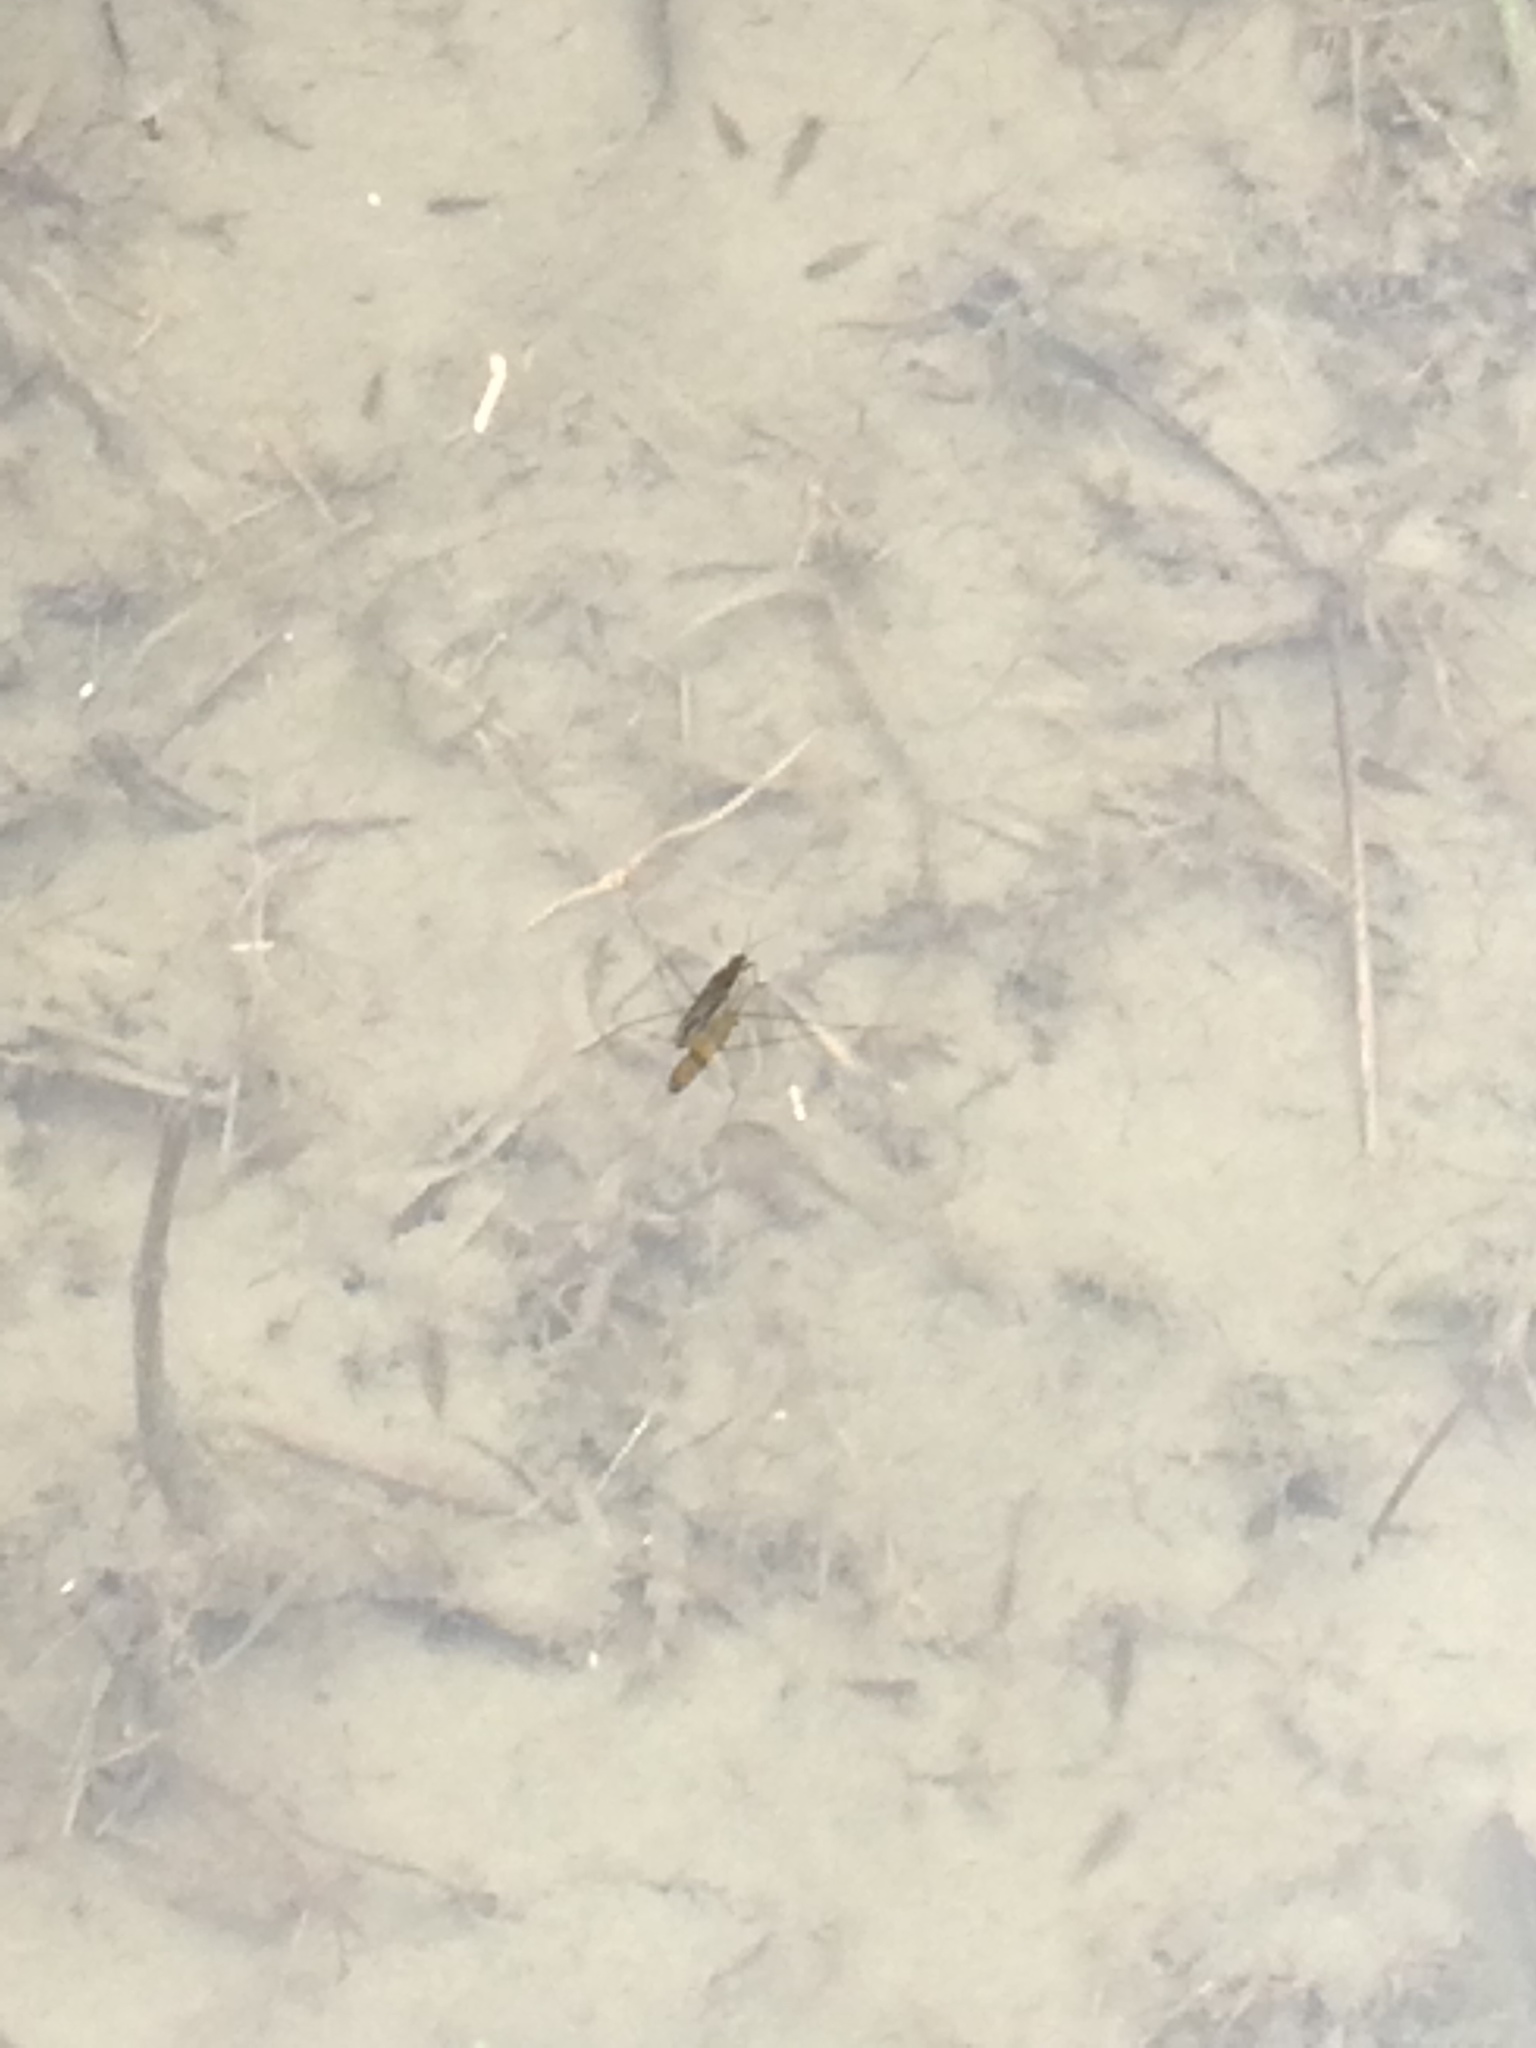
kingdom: Animalia
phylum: Arthropoda
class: Insecta
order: Hemiptera
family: Gerridae
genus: Gerris
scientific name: Gerris
